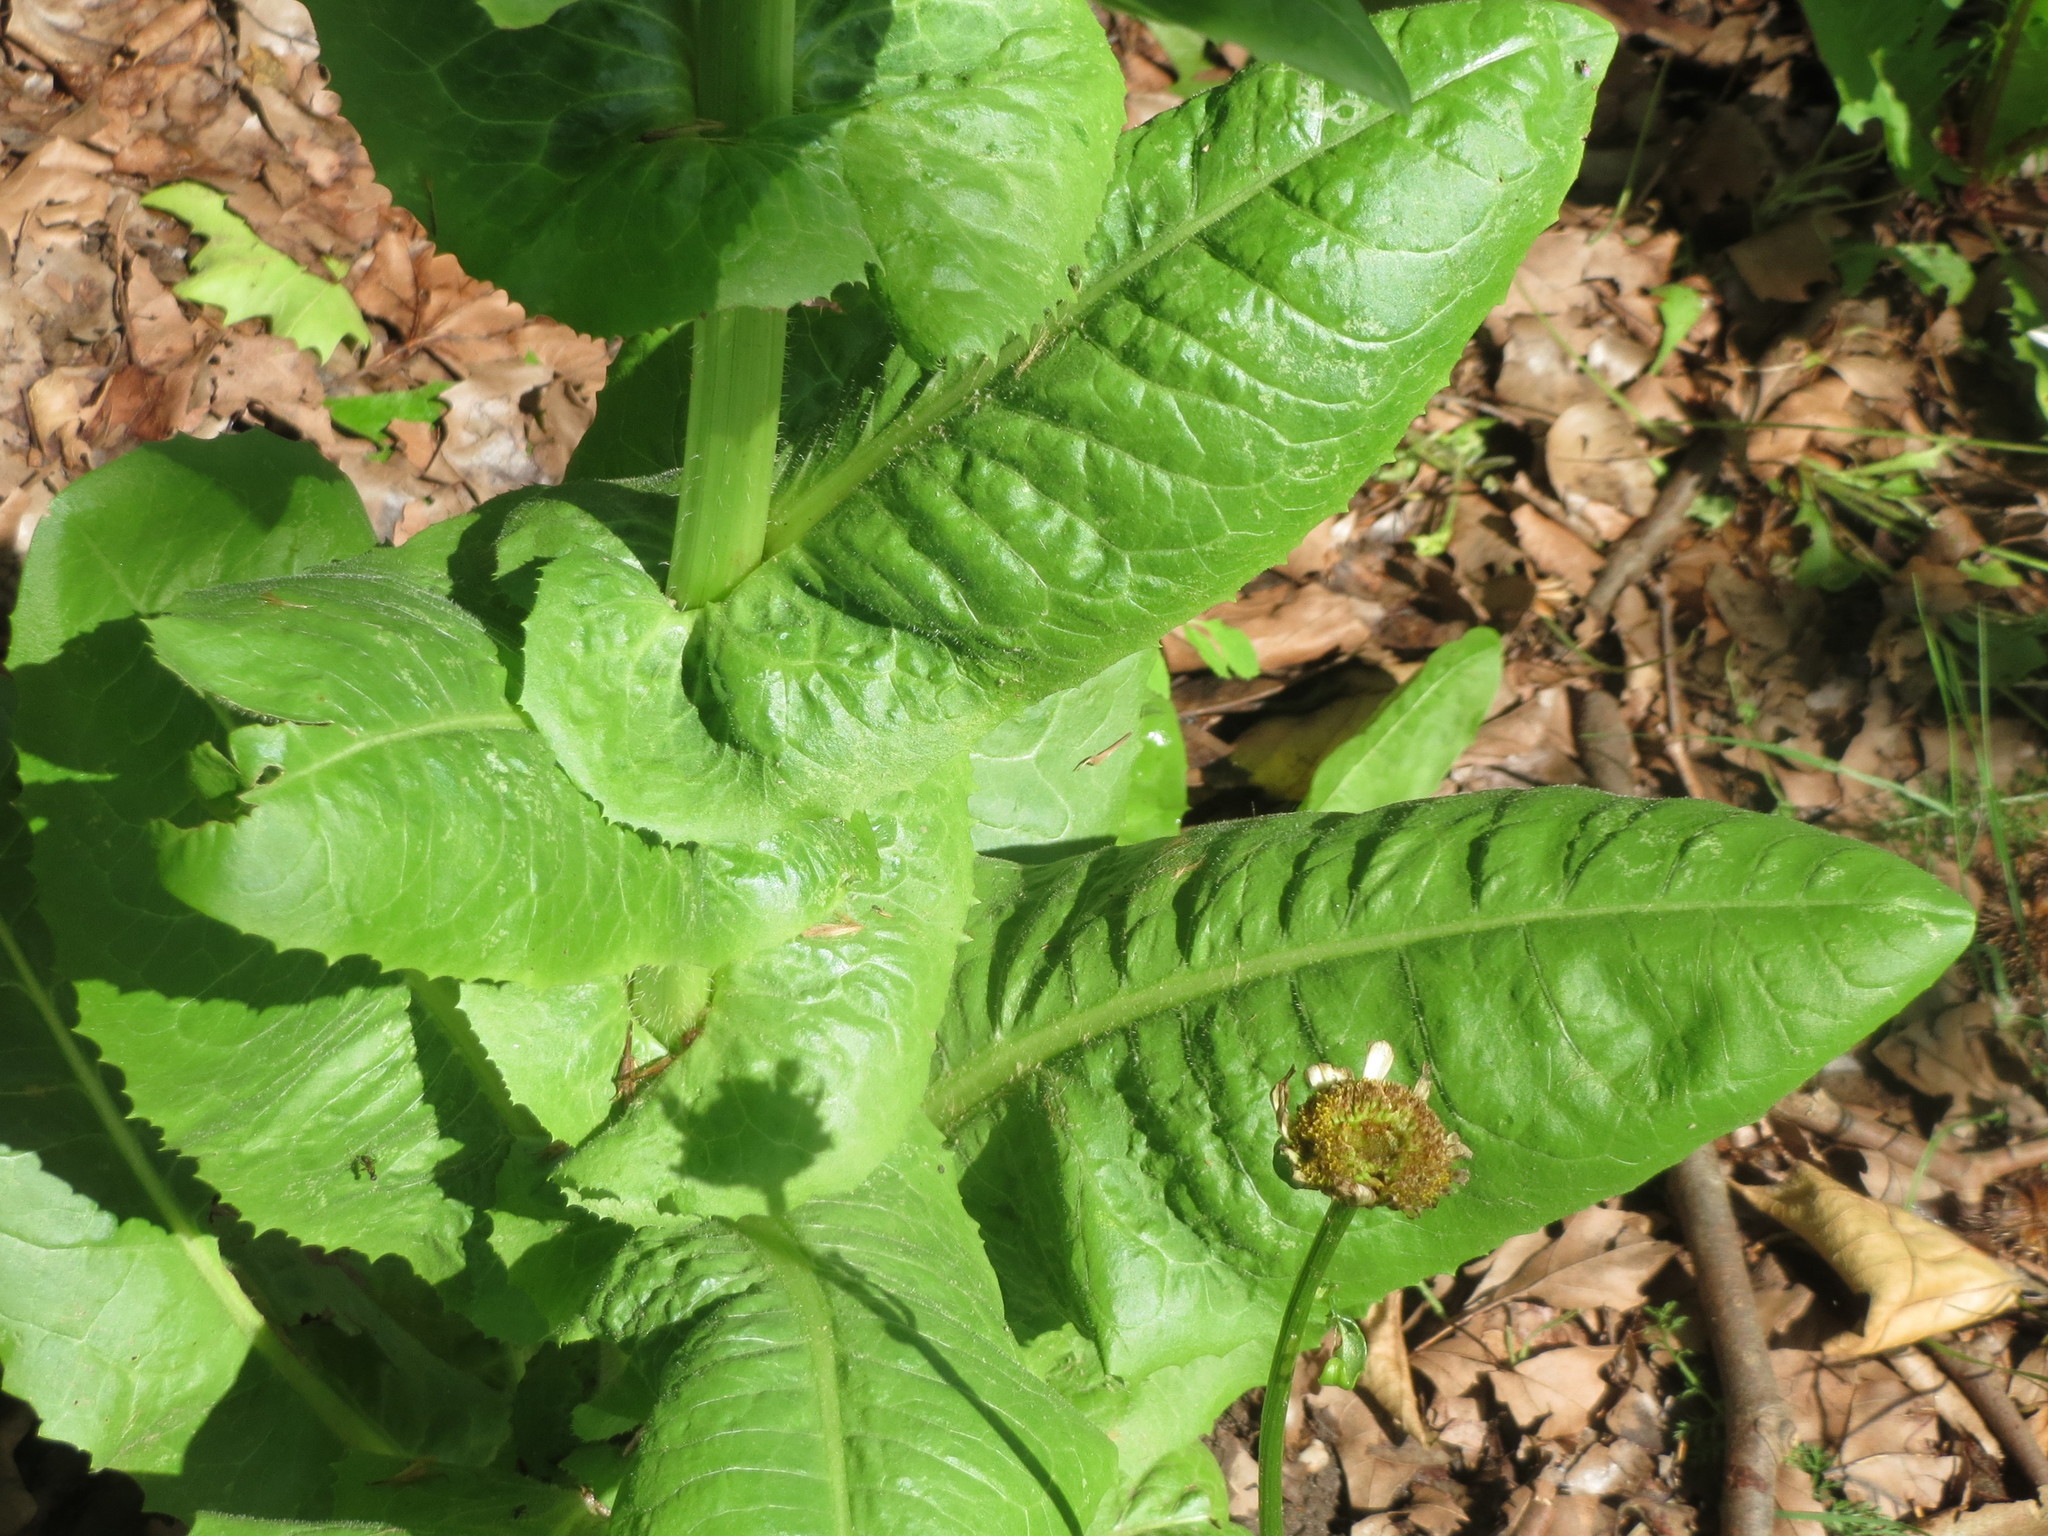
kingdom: Plantae
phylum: Tracheophyta
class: Magnoliopsida
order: Asterales
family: Asteraceae
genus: Cichorium
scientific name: Cichorium intybus
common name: Chicory
